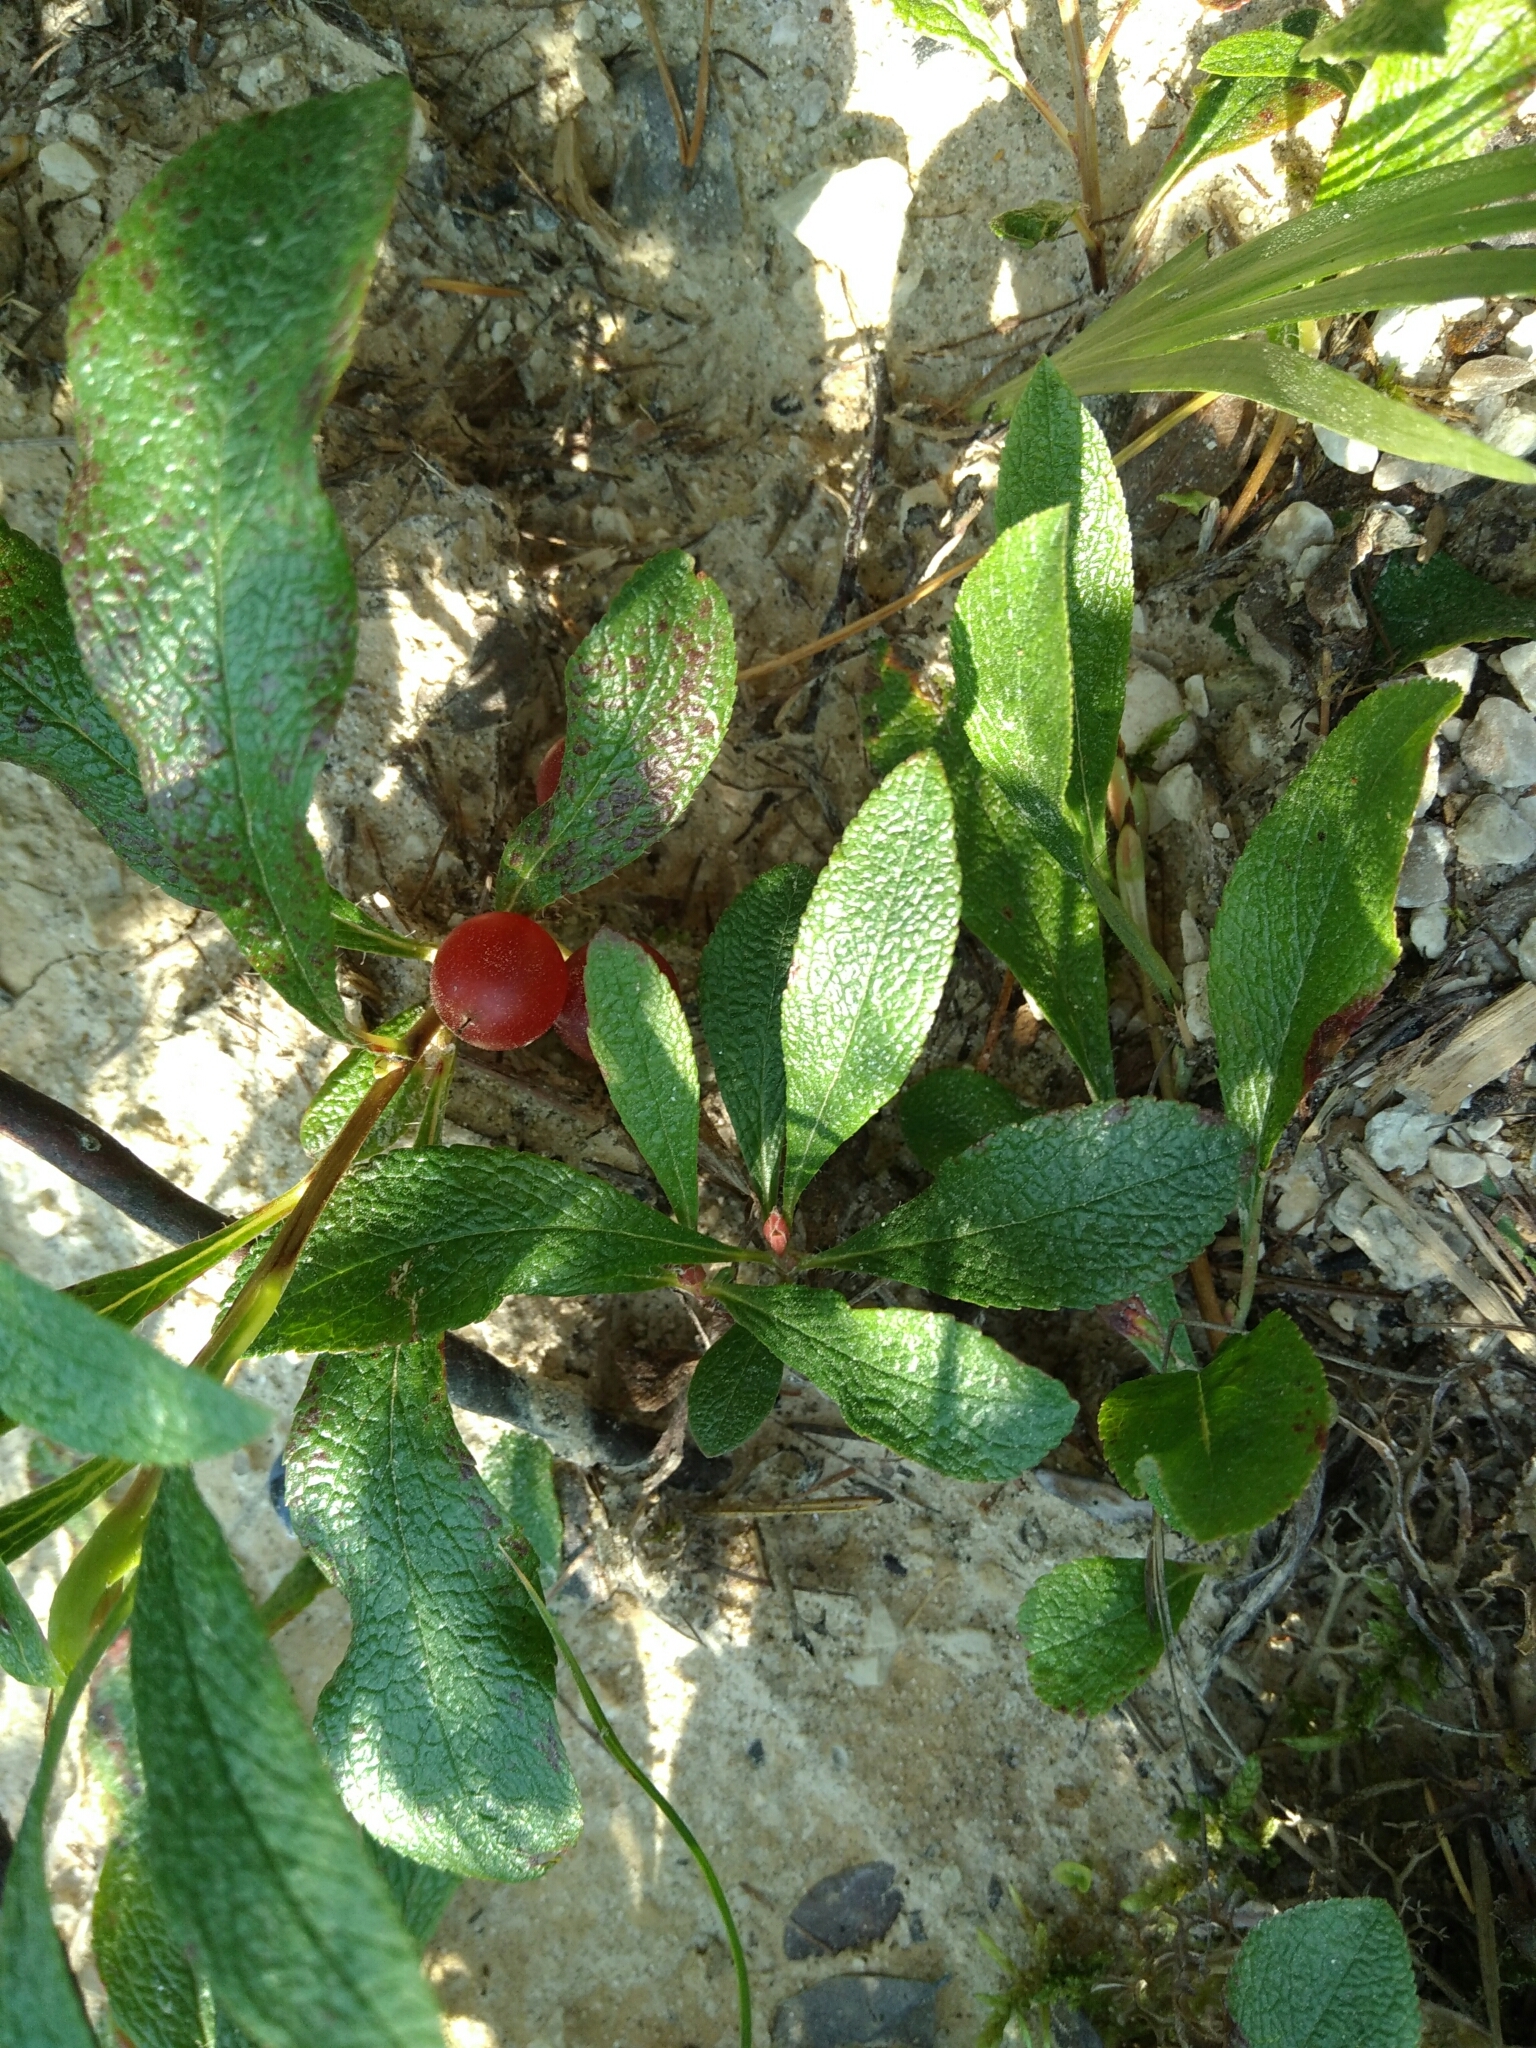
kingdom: Plantae
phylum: Tracheophyta
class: Magnoliopsida
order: Ericales
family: Ericaceae
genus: Arctostaphylos
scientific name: Arctostaphylos alpinus
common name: Alpine bearberry
